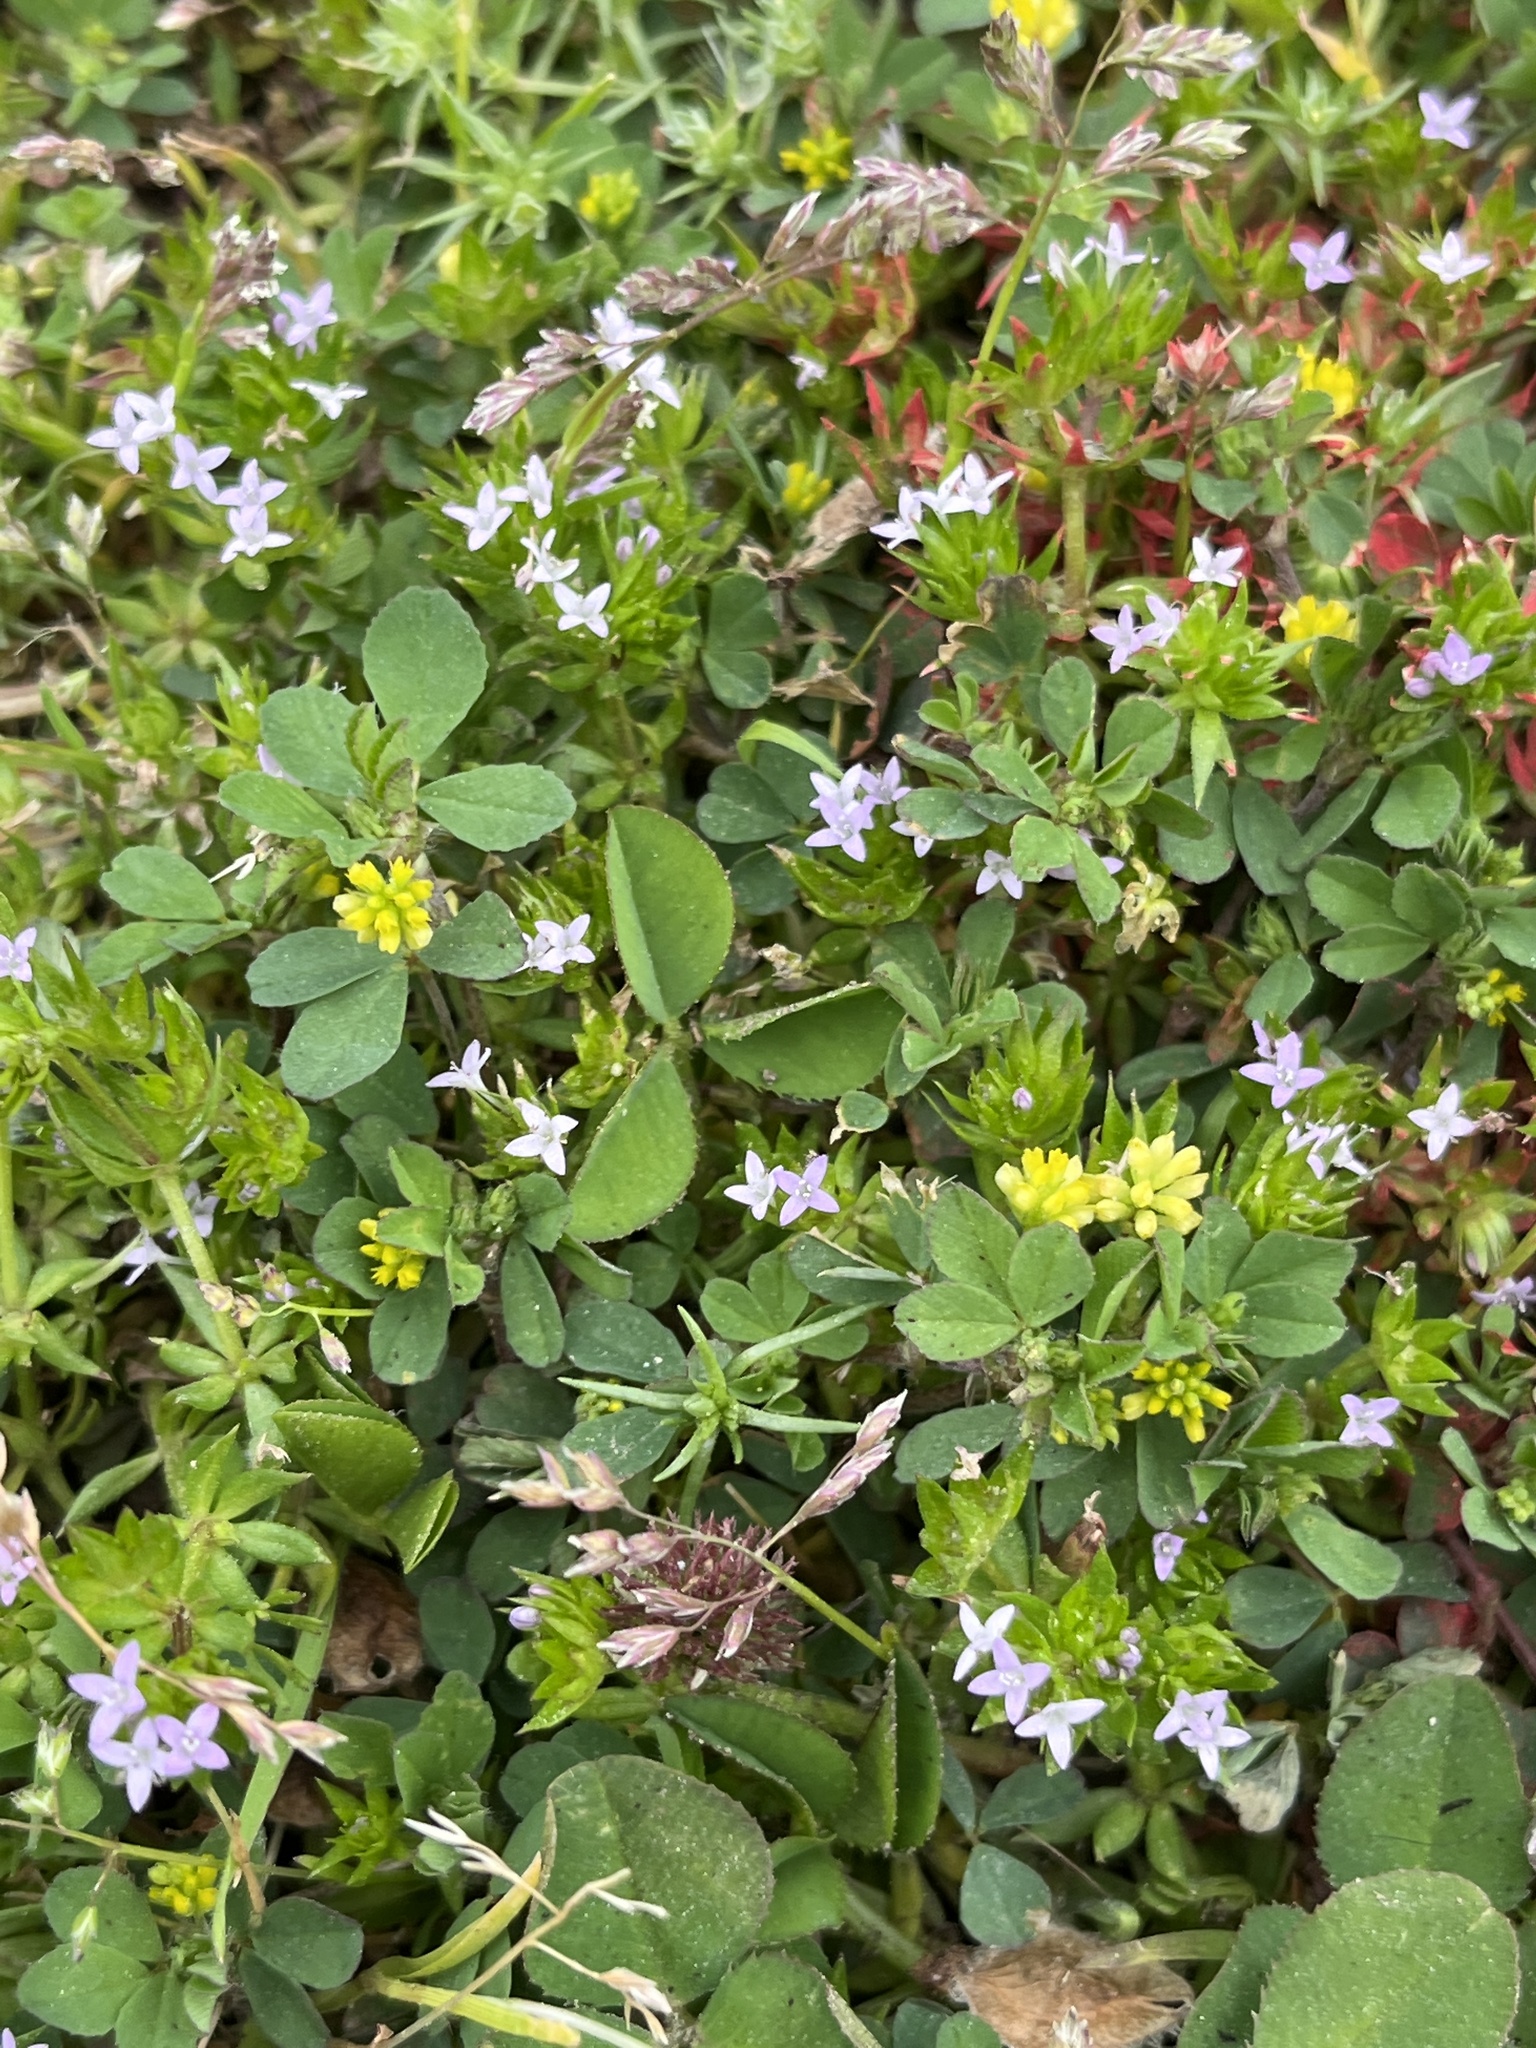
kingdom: Plantae
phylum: Tracheophyta
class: Magnoliopsida
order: Gentianales
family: Rubiaceae
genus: Sherardia
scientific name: Sherardia arvensis
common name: Field madder
